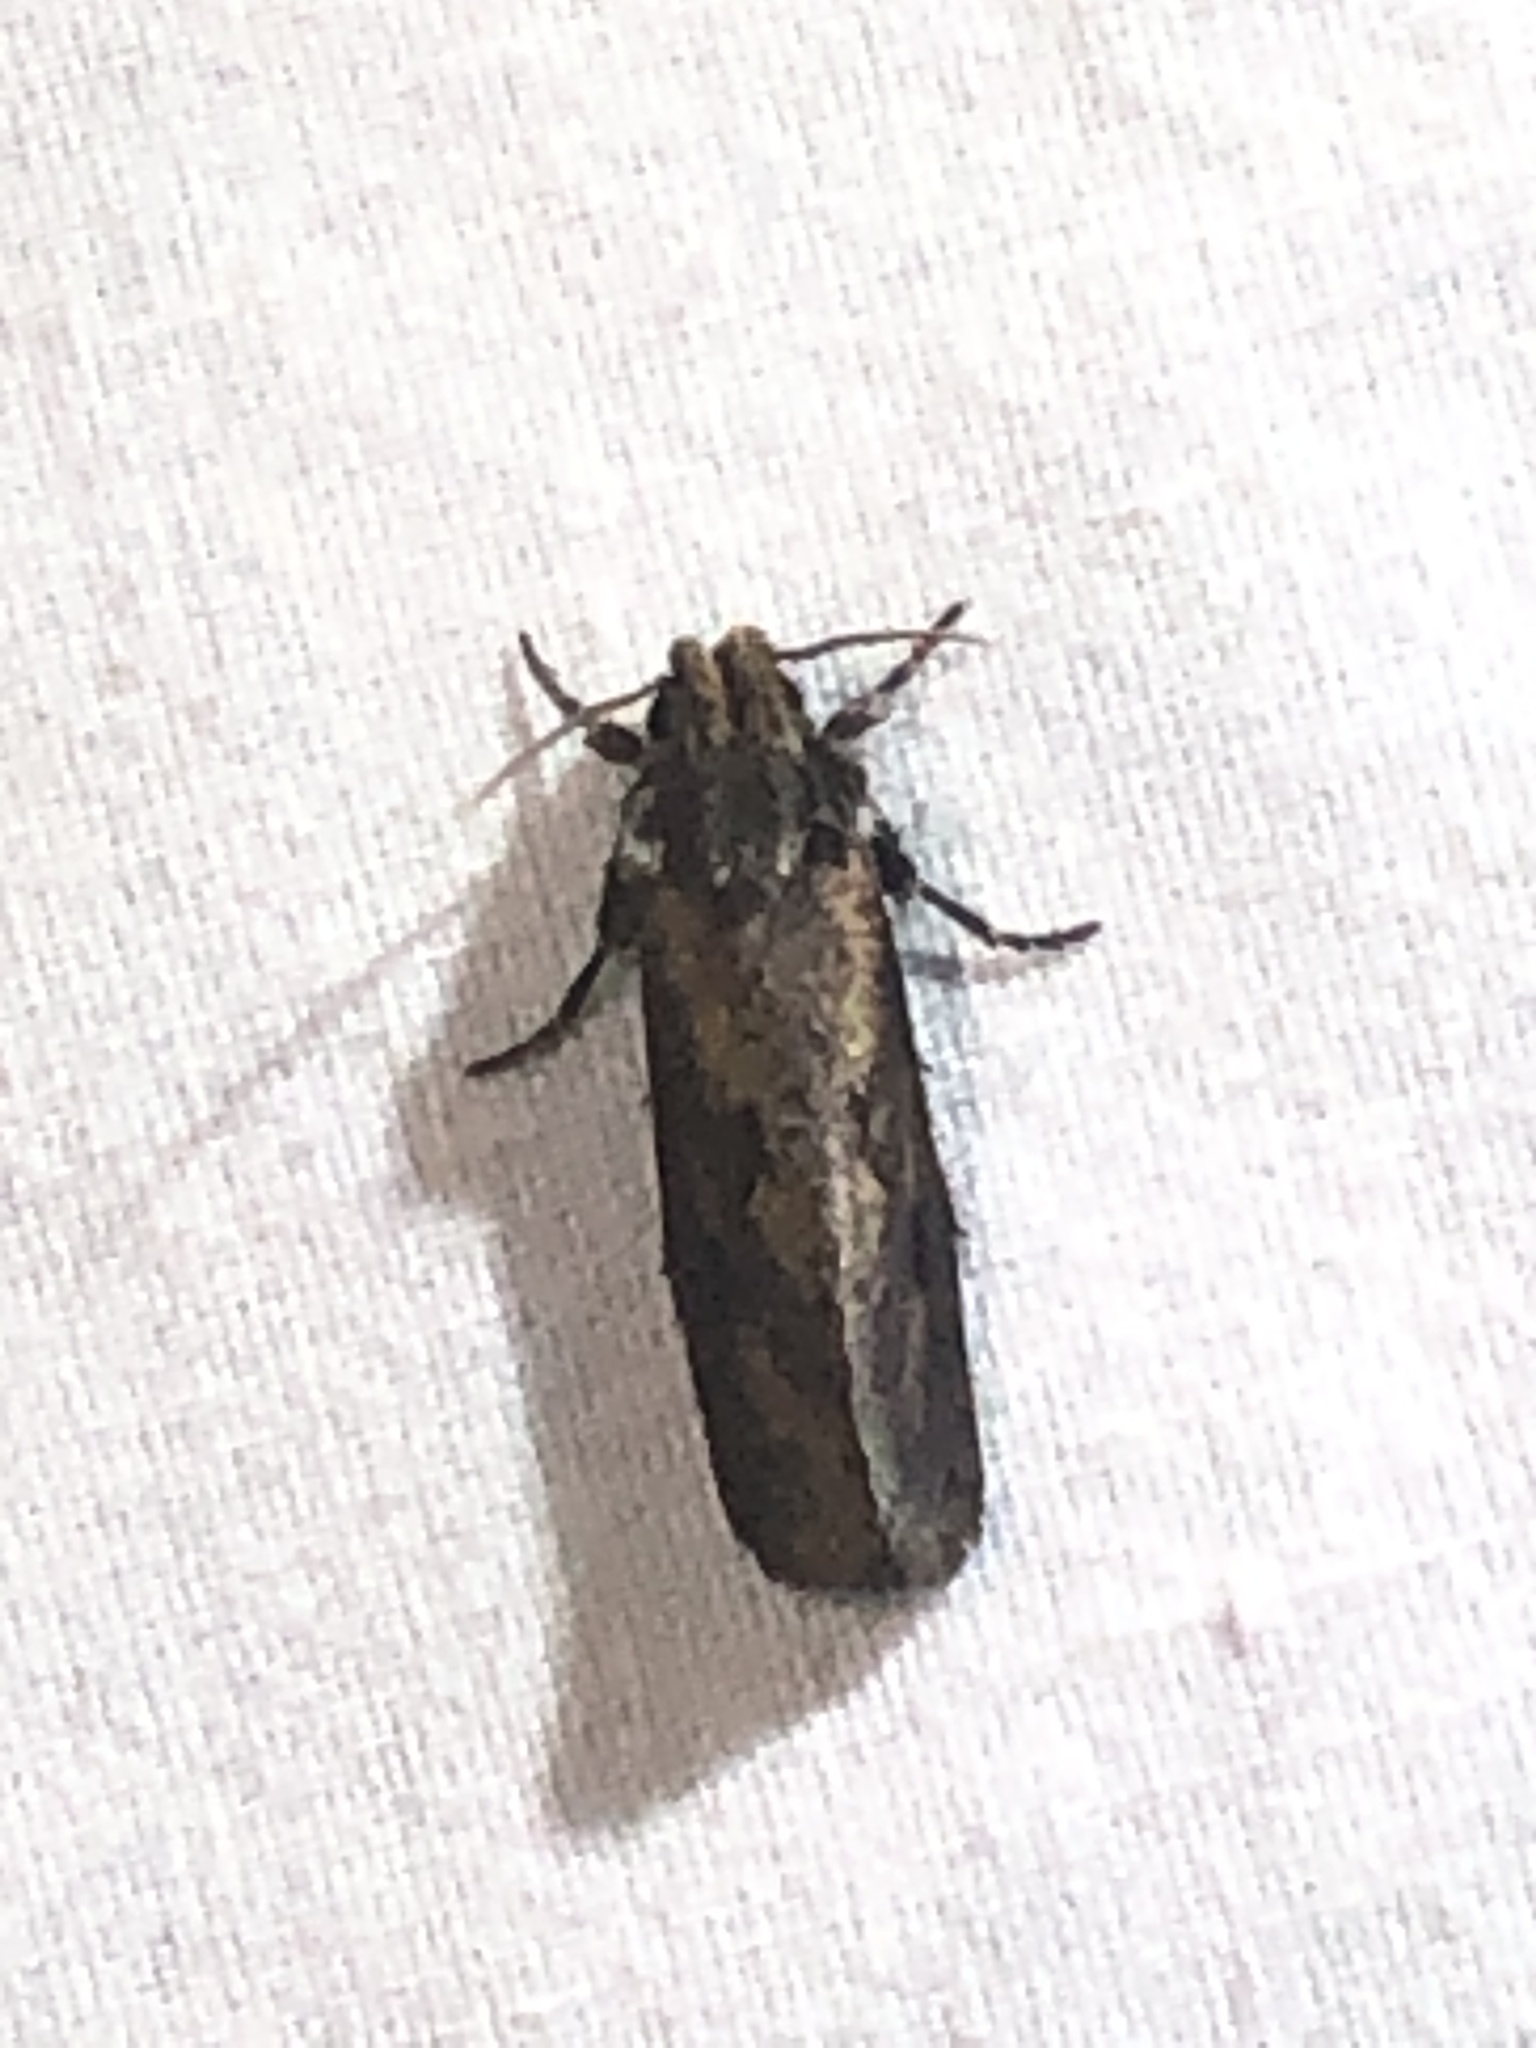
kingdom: Animalia
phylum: Arthropoda
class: Insecta
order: Lepidoptera
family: Tineidae
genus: Acrolophus
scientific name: Acrolophus popeanella
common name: Clemens' grass tubeworm moth
